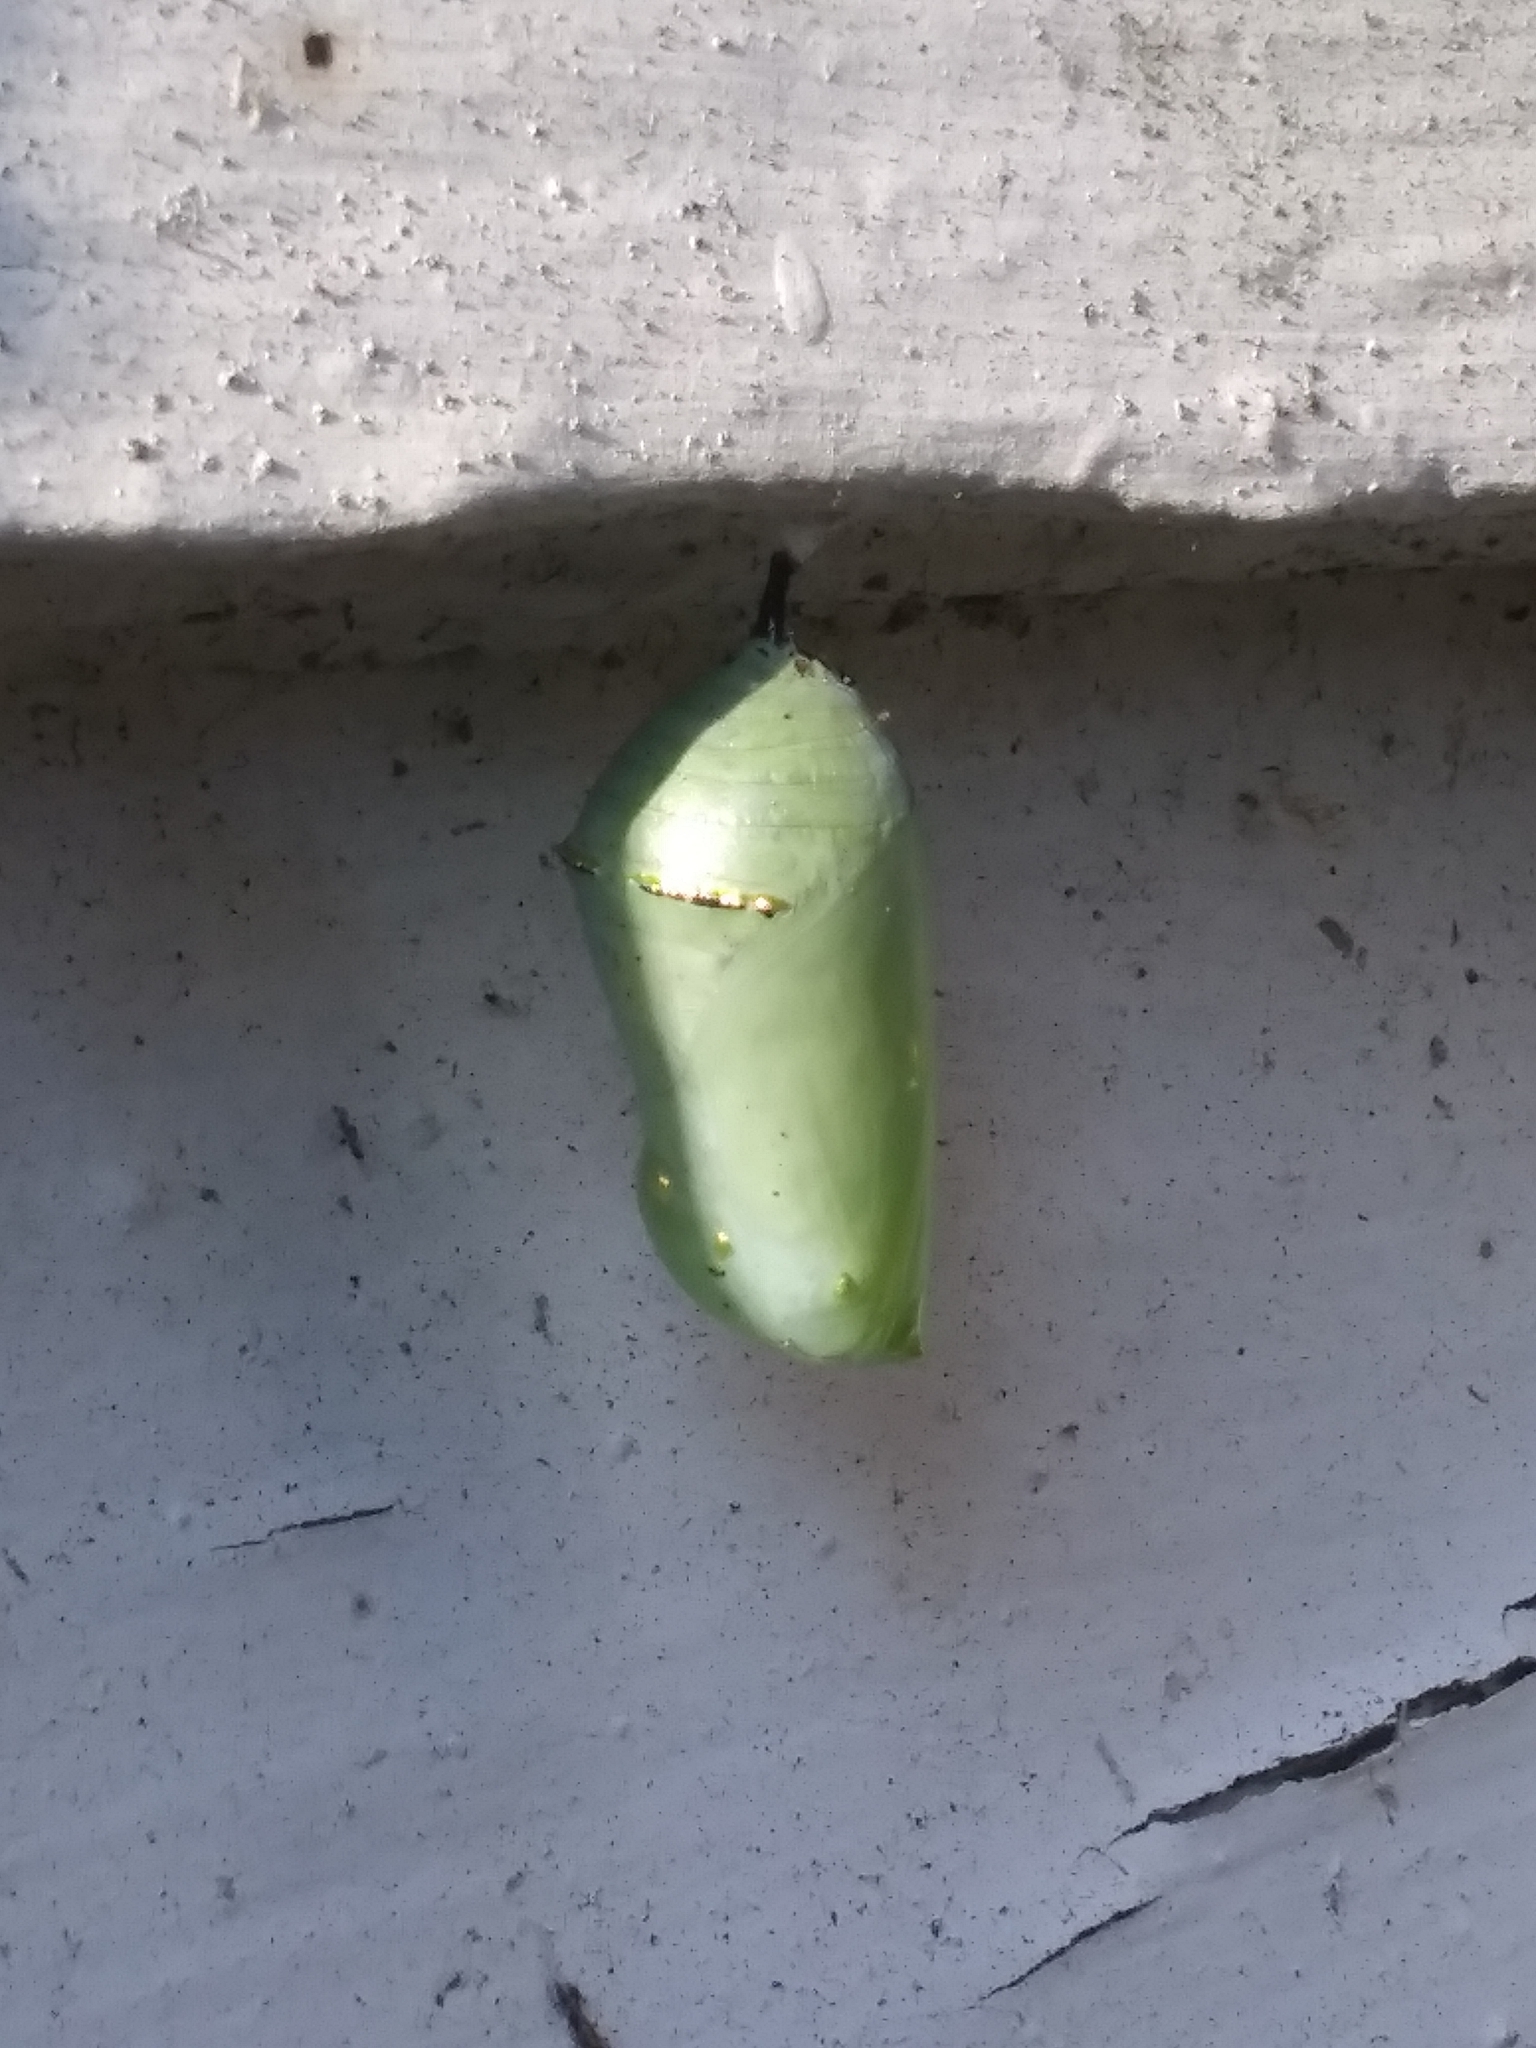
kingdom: Animalia
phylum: Arthropoda
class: Insecta
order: Lepidoptera
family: Nymphalidae
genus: Danaus
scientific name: Danaus plexippus
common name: Monarch
